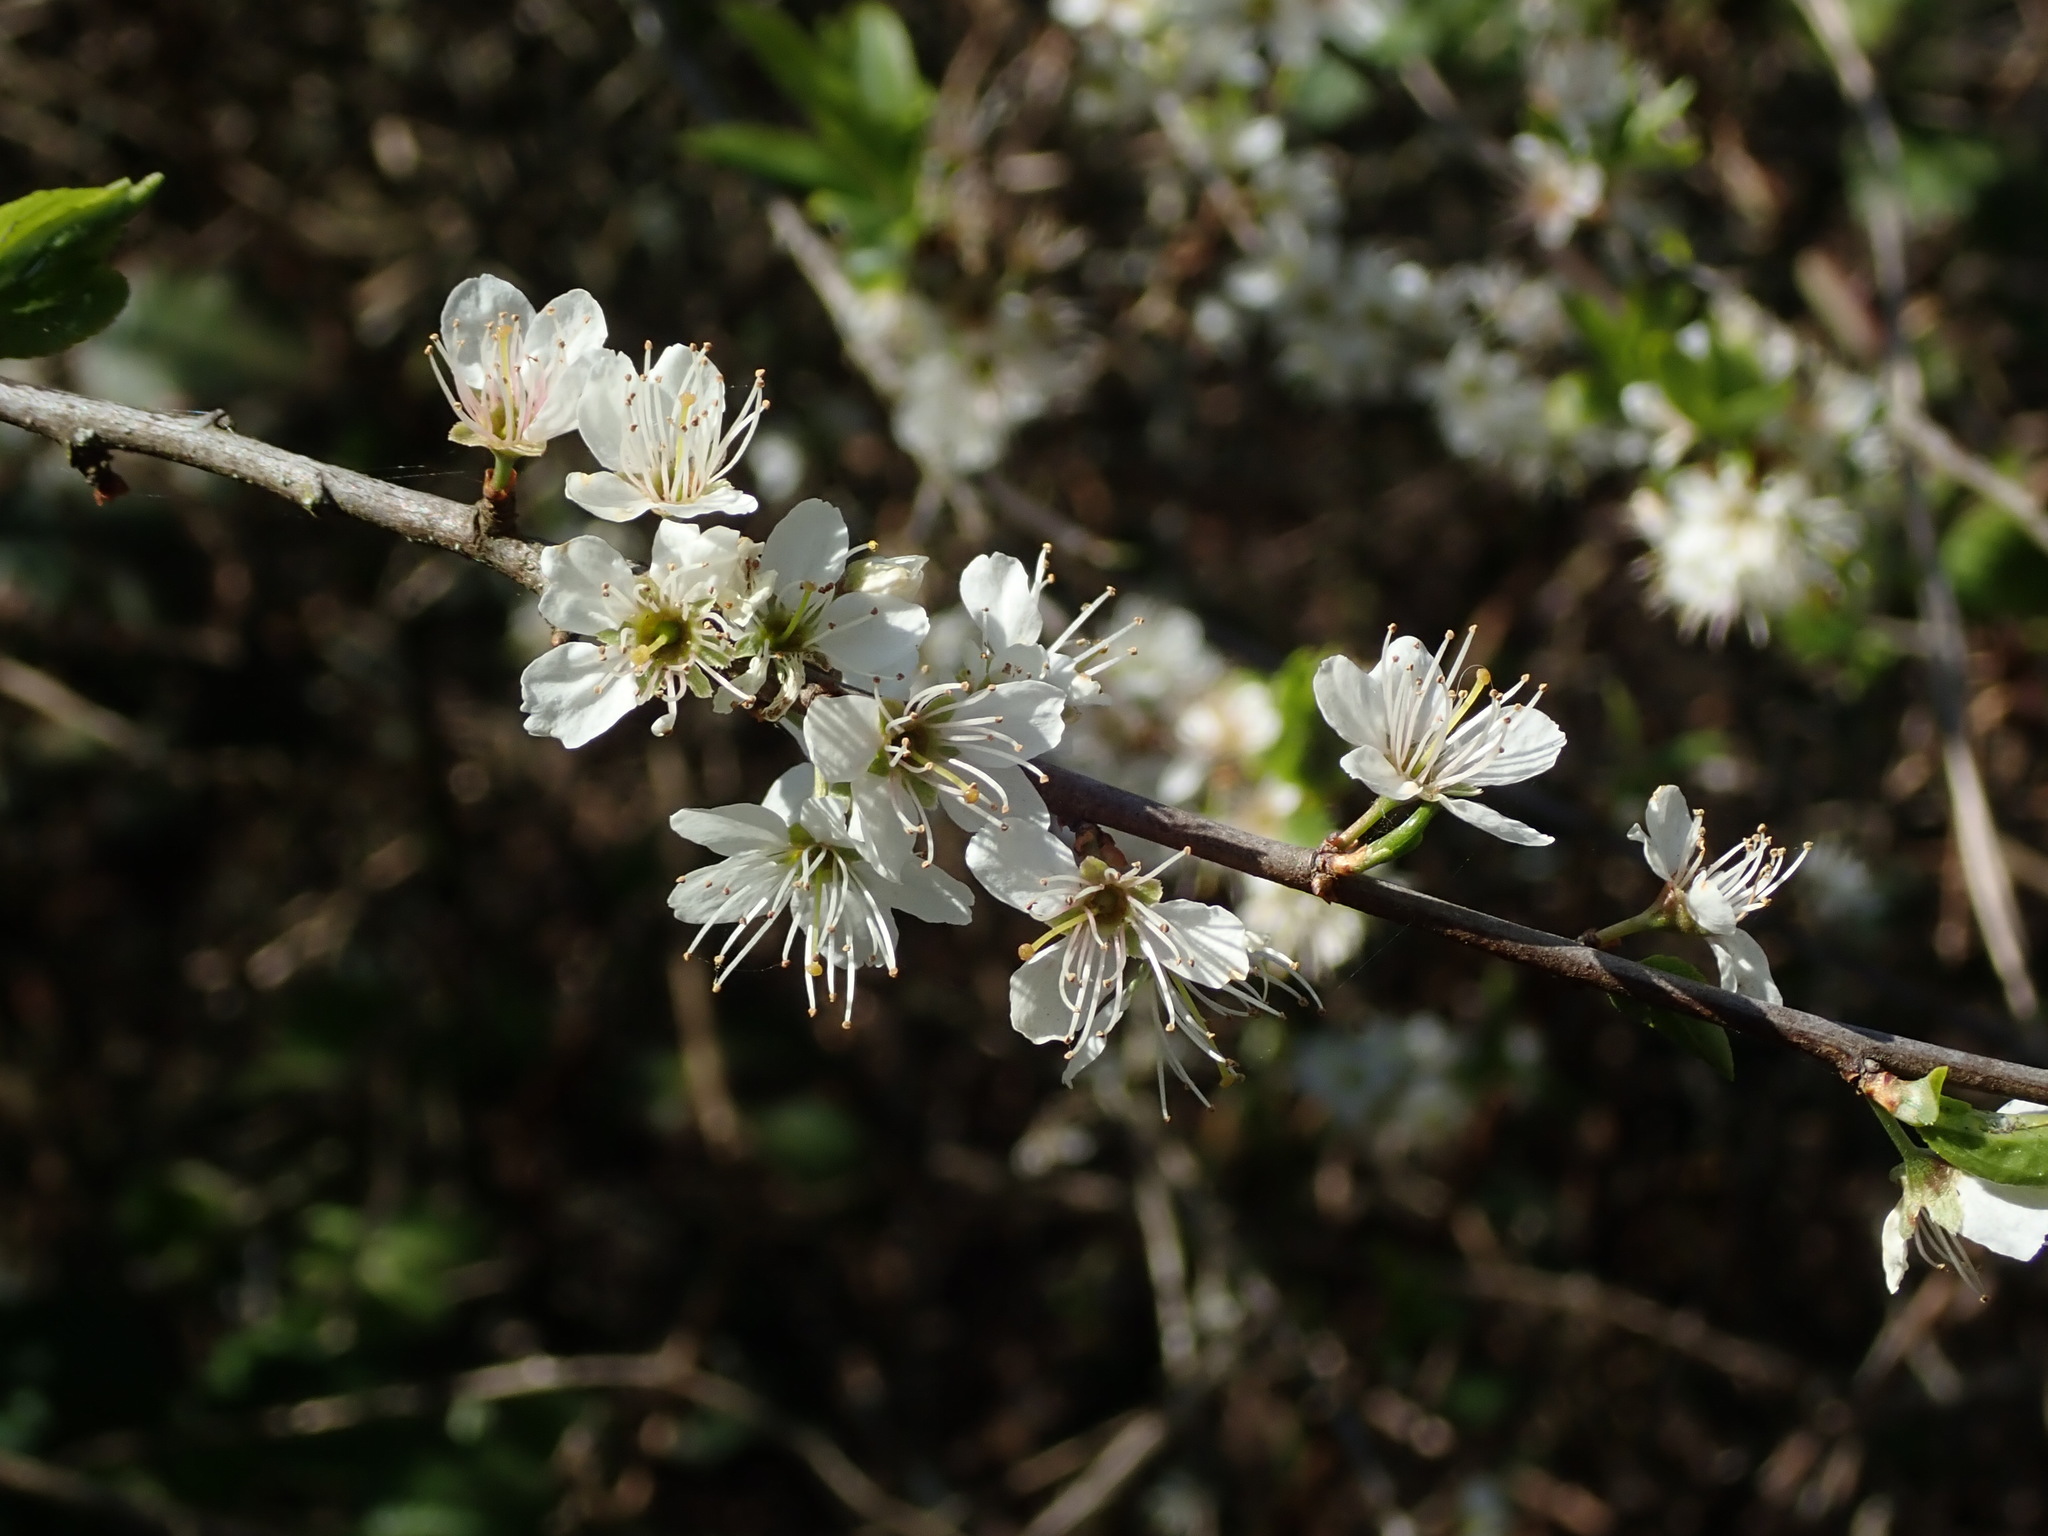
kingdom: Plantae
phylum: Tracheophyta
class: Magnoliopsida
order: Rosales
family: Rosaceae
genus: Prunus
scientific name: Prunus spinosa
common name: Blackthorn
